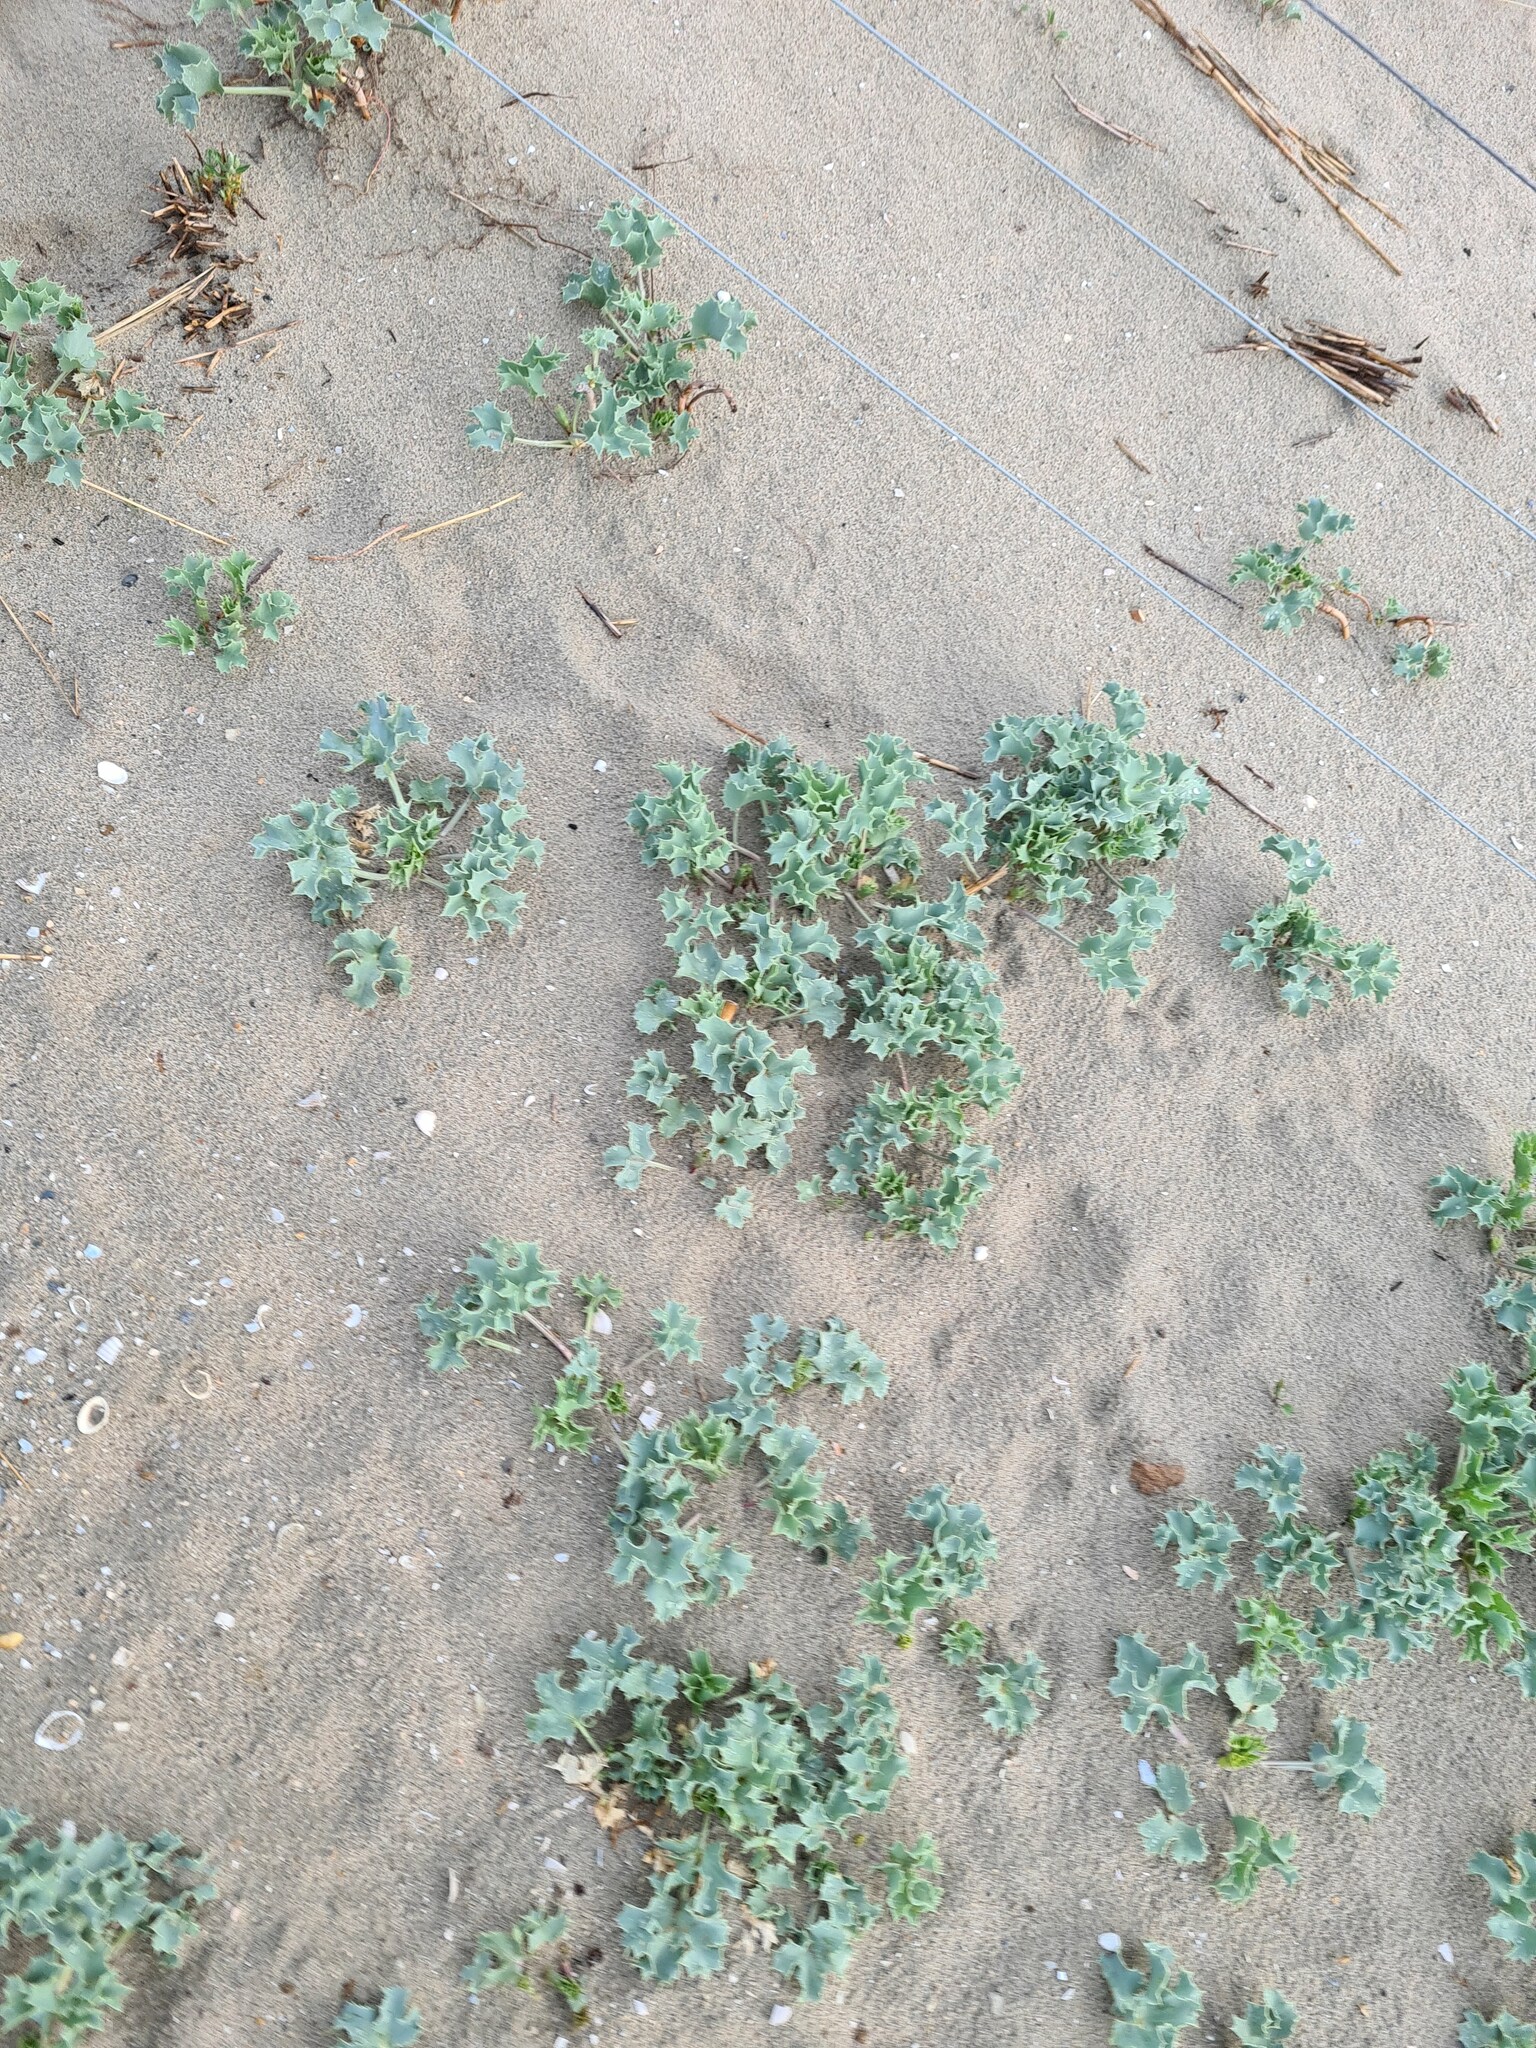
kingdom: Plantae
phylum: Tracheophyta
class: Magnoliopsida
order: Apiales
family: Apiaceae
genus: Eryngium
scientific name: Eryngium maritimum
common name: Sea-holly
